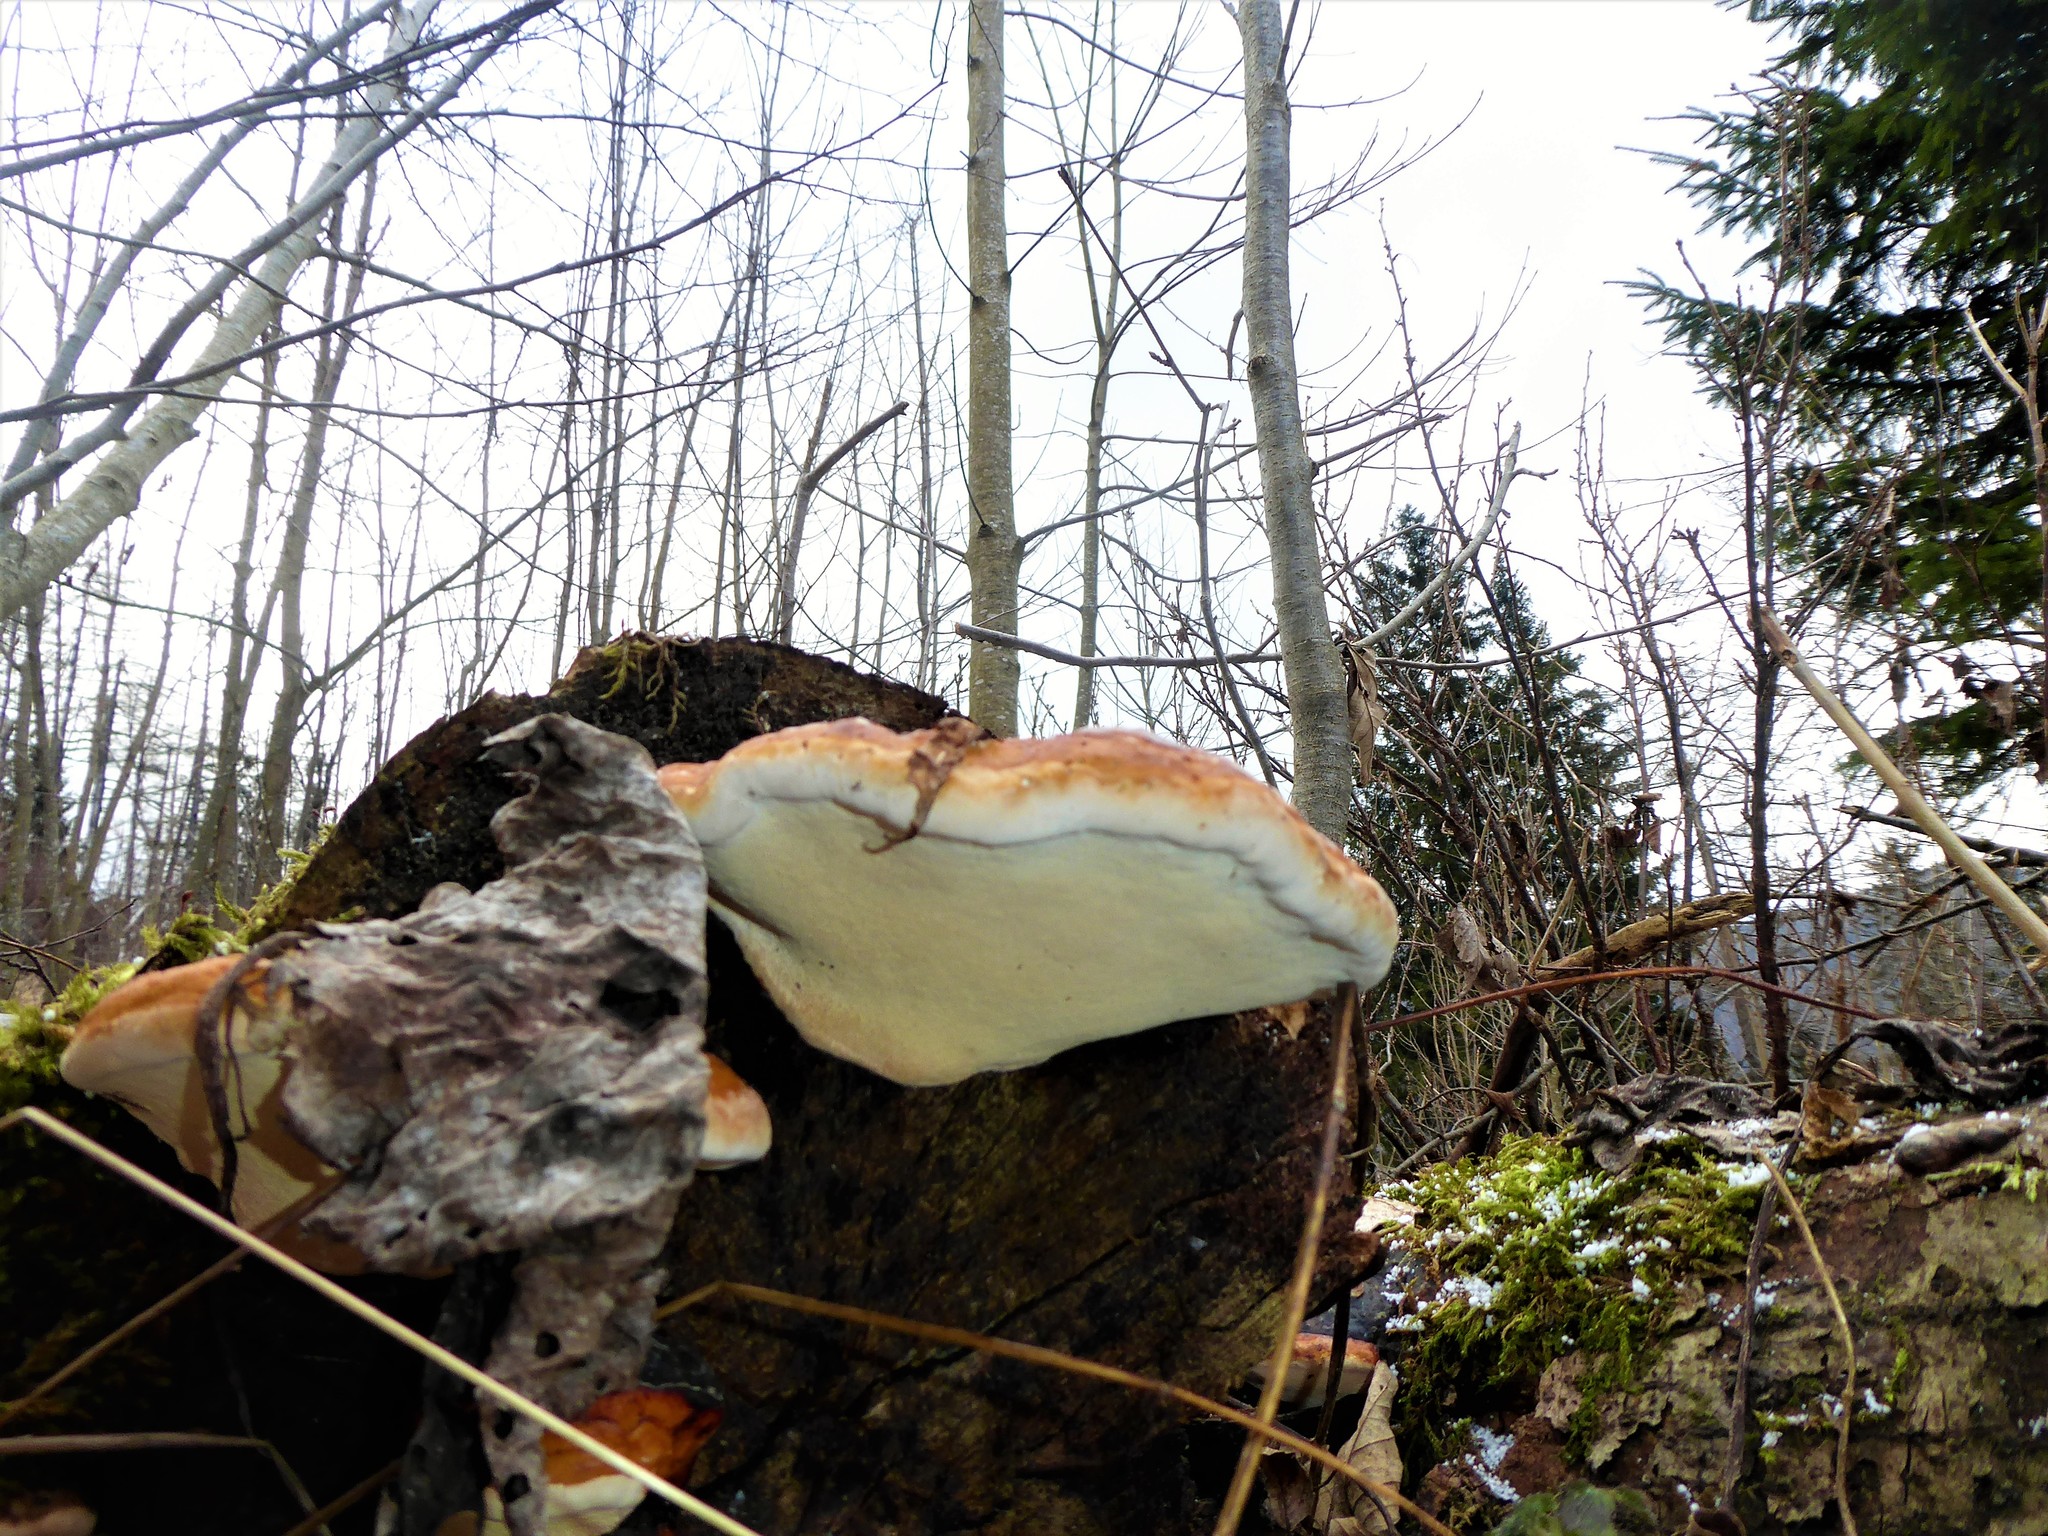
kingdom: Fungi
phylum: Basidiomycota
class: Agaricomycetes
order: Polyporales
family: Fomitopsidaceae
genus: Fomitopsis
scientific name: Fomitopsis pinicola
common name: Red-belted bracket
